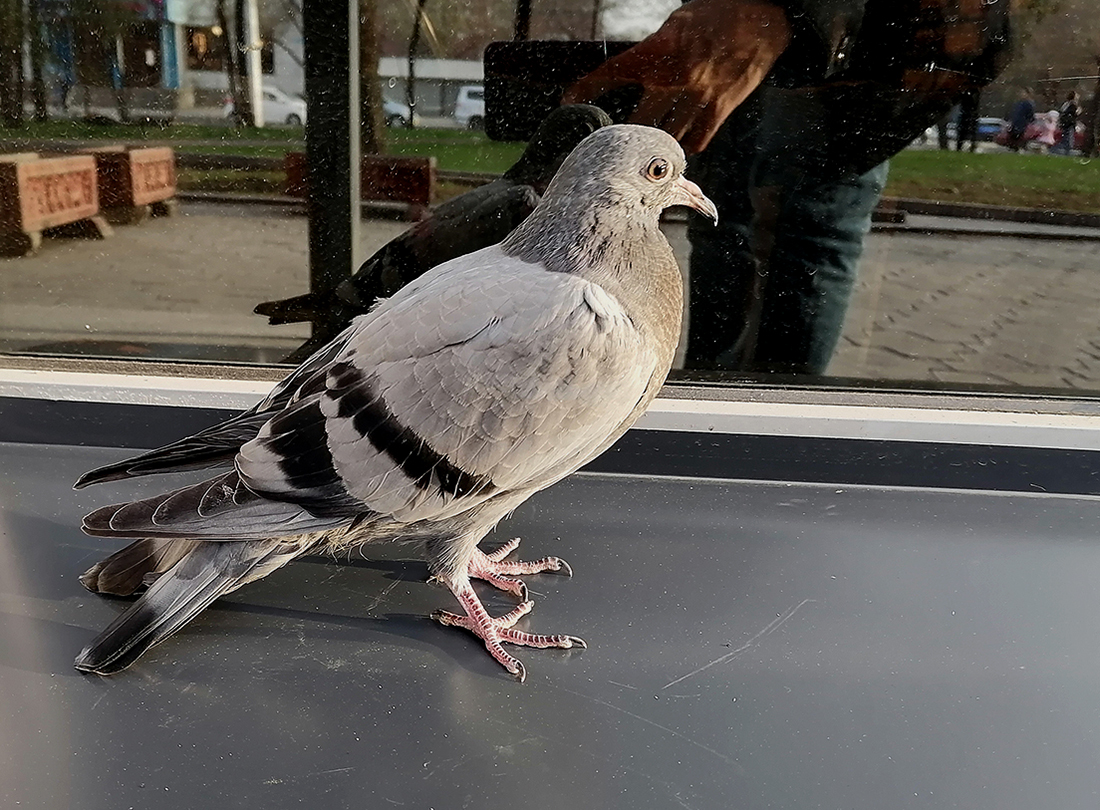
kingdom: Animalia
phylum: Chordata
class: Aves
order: Columbiformes
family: Columbidae
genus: Columba
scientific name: Columba livia
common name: Rock pigeon
